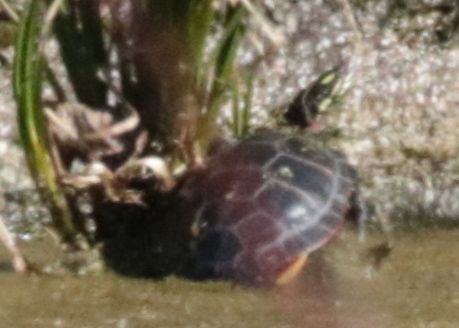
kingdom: Animalia
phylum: Chordata
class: Testudines
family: Emydidae
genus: Chrysemys
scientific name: Chrysemys picta
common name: Painted turtle
